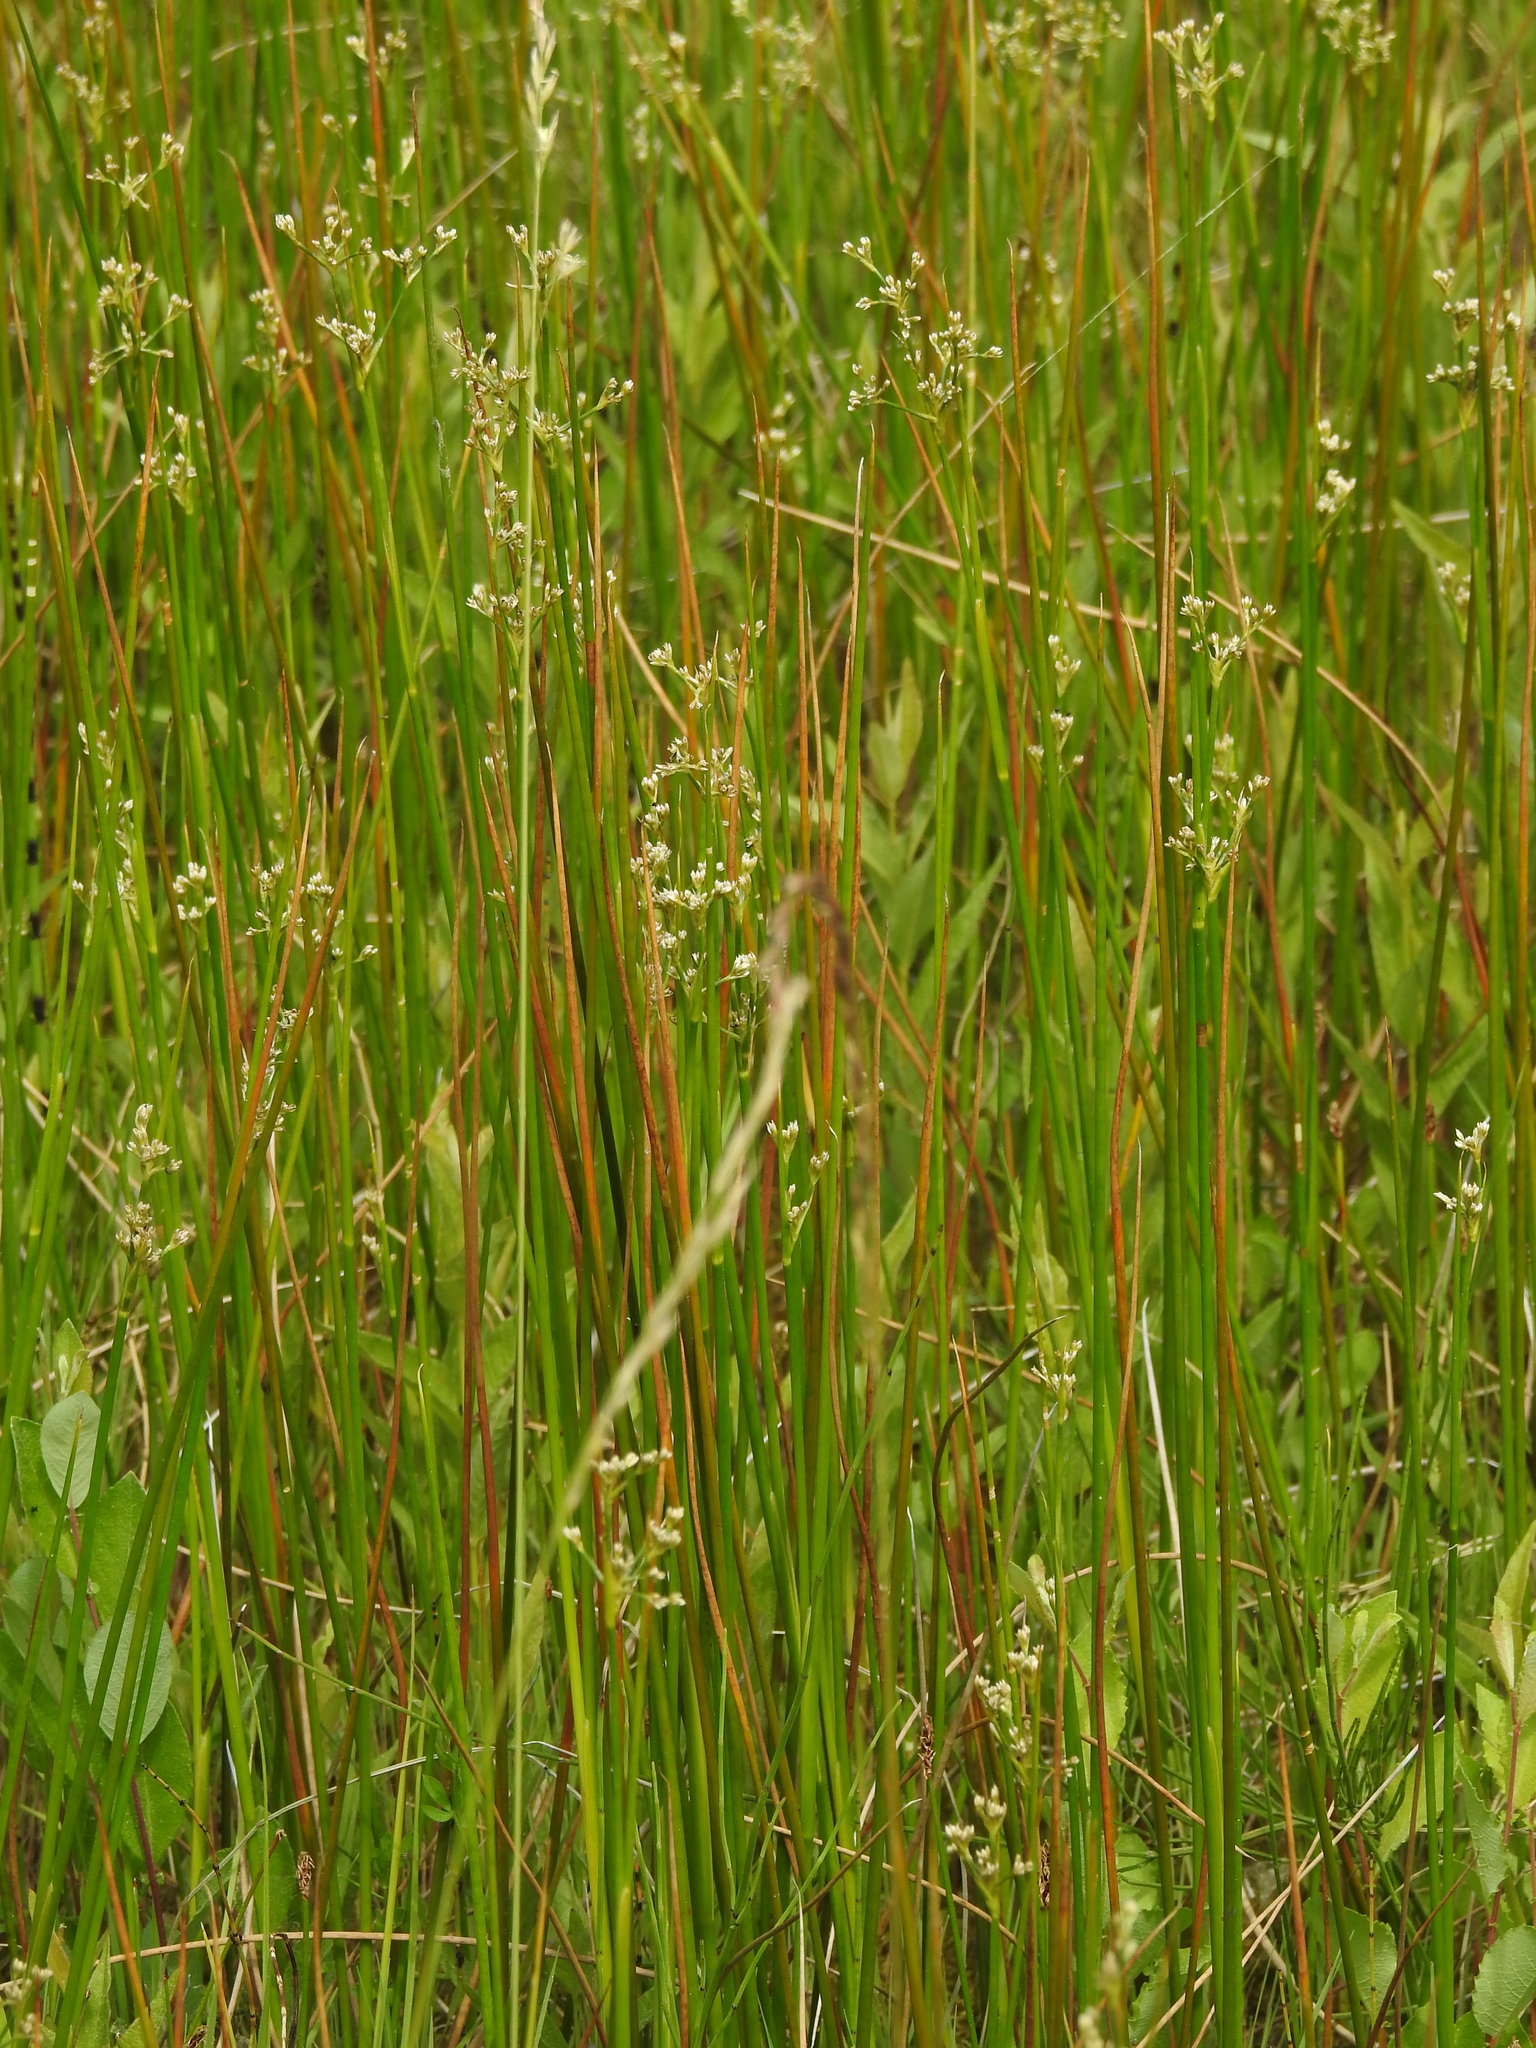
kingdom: Plantae
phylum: Tracheophyta
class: Liliopsida
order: Poales
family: Juncaceae
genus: Juncus
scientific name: Juncus subnodulosus
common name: Blunt-flowered rush
